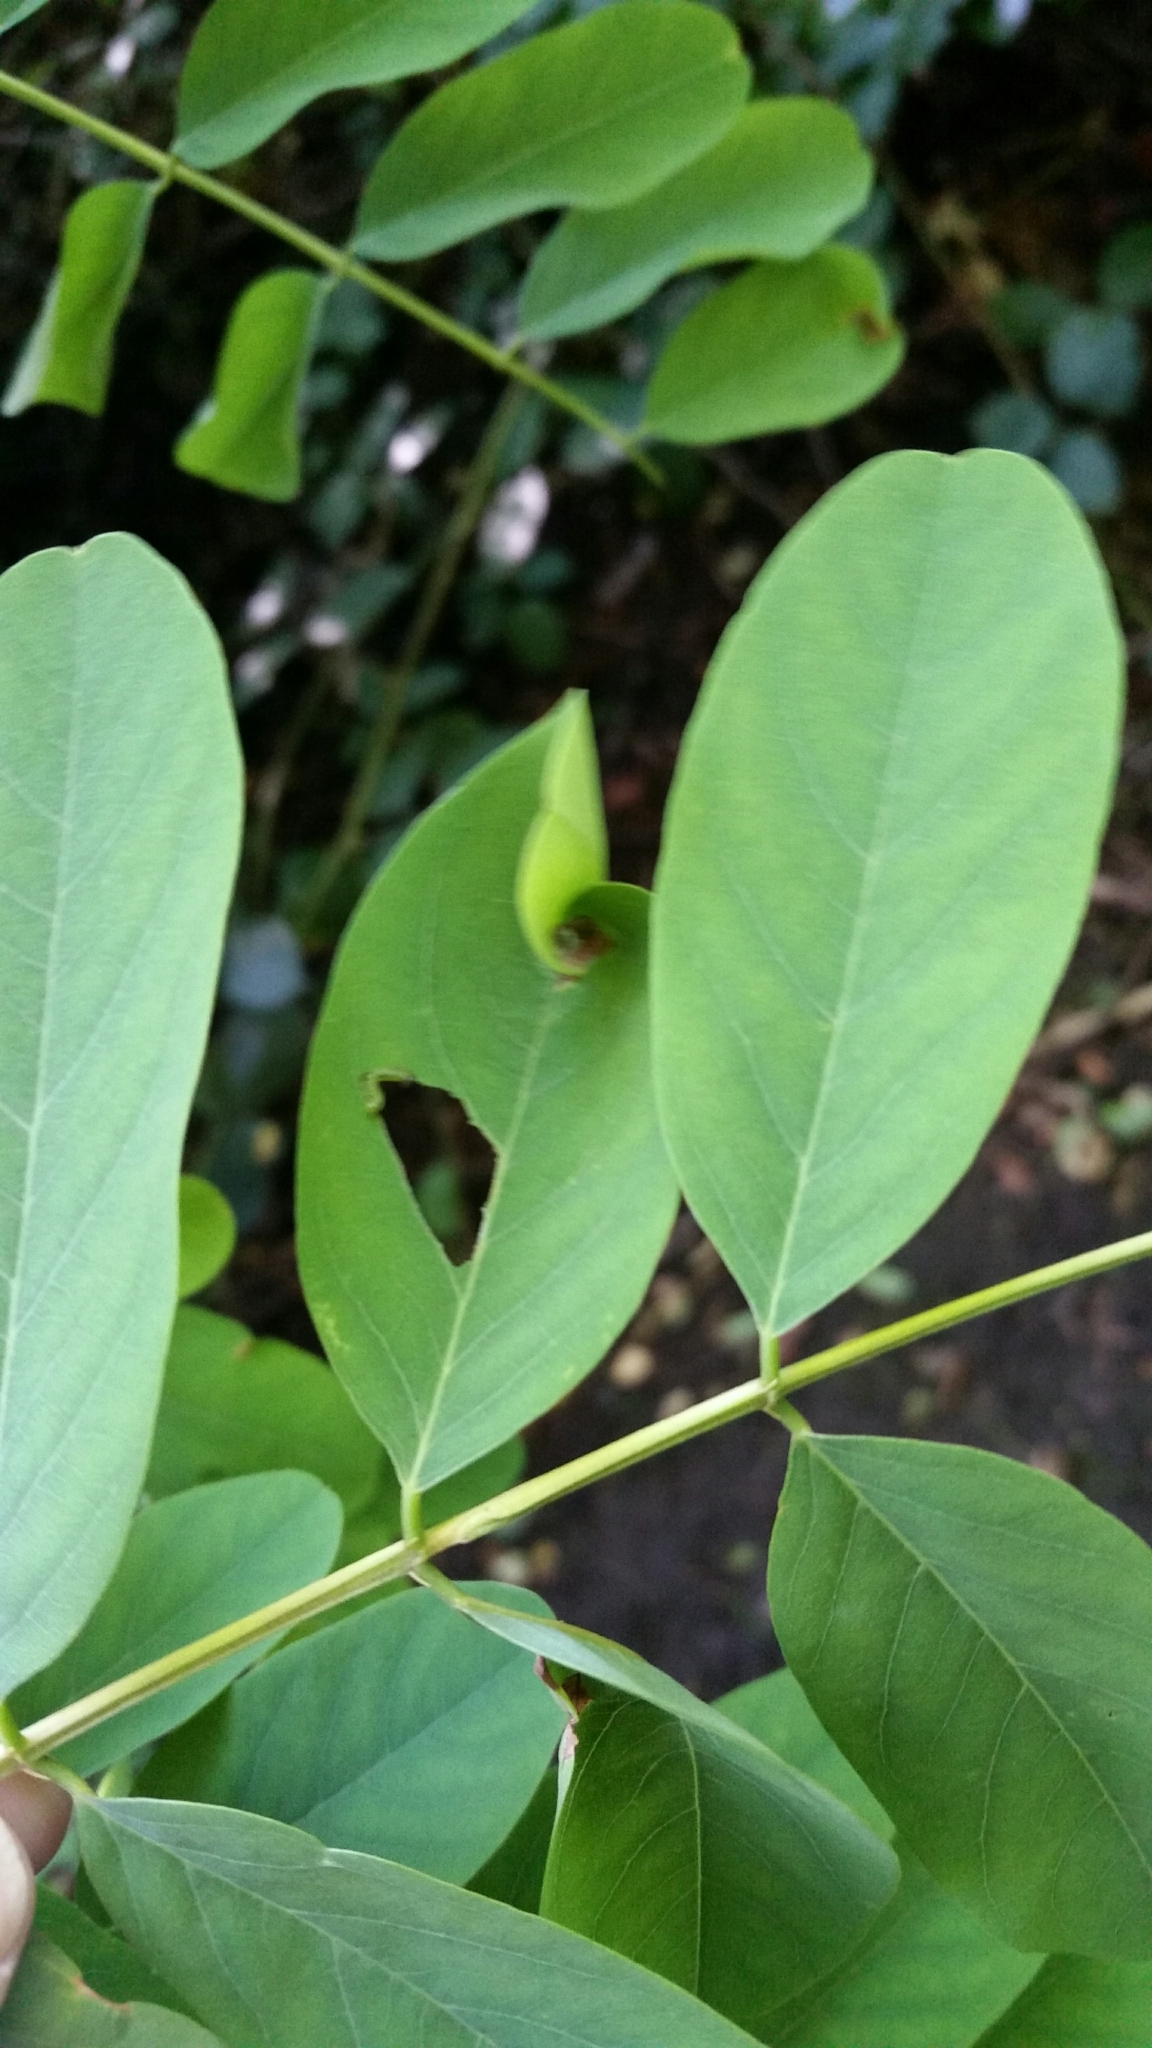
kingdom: Animalia
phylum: Arthropoda
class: Insecta
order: Hymenoptera
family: Tenthredinidae
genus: Euura
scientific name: Euura tibialis
